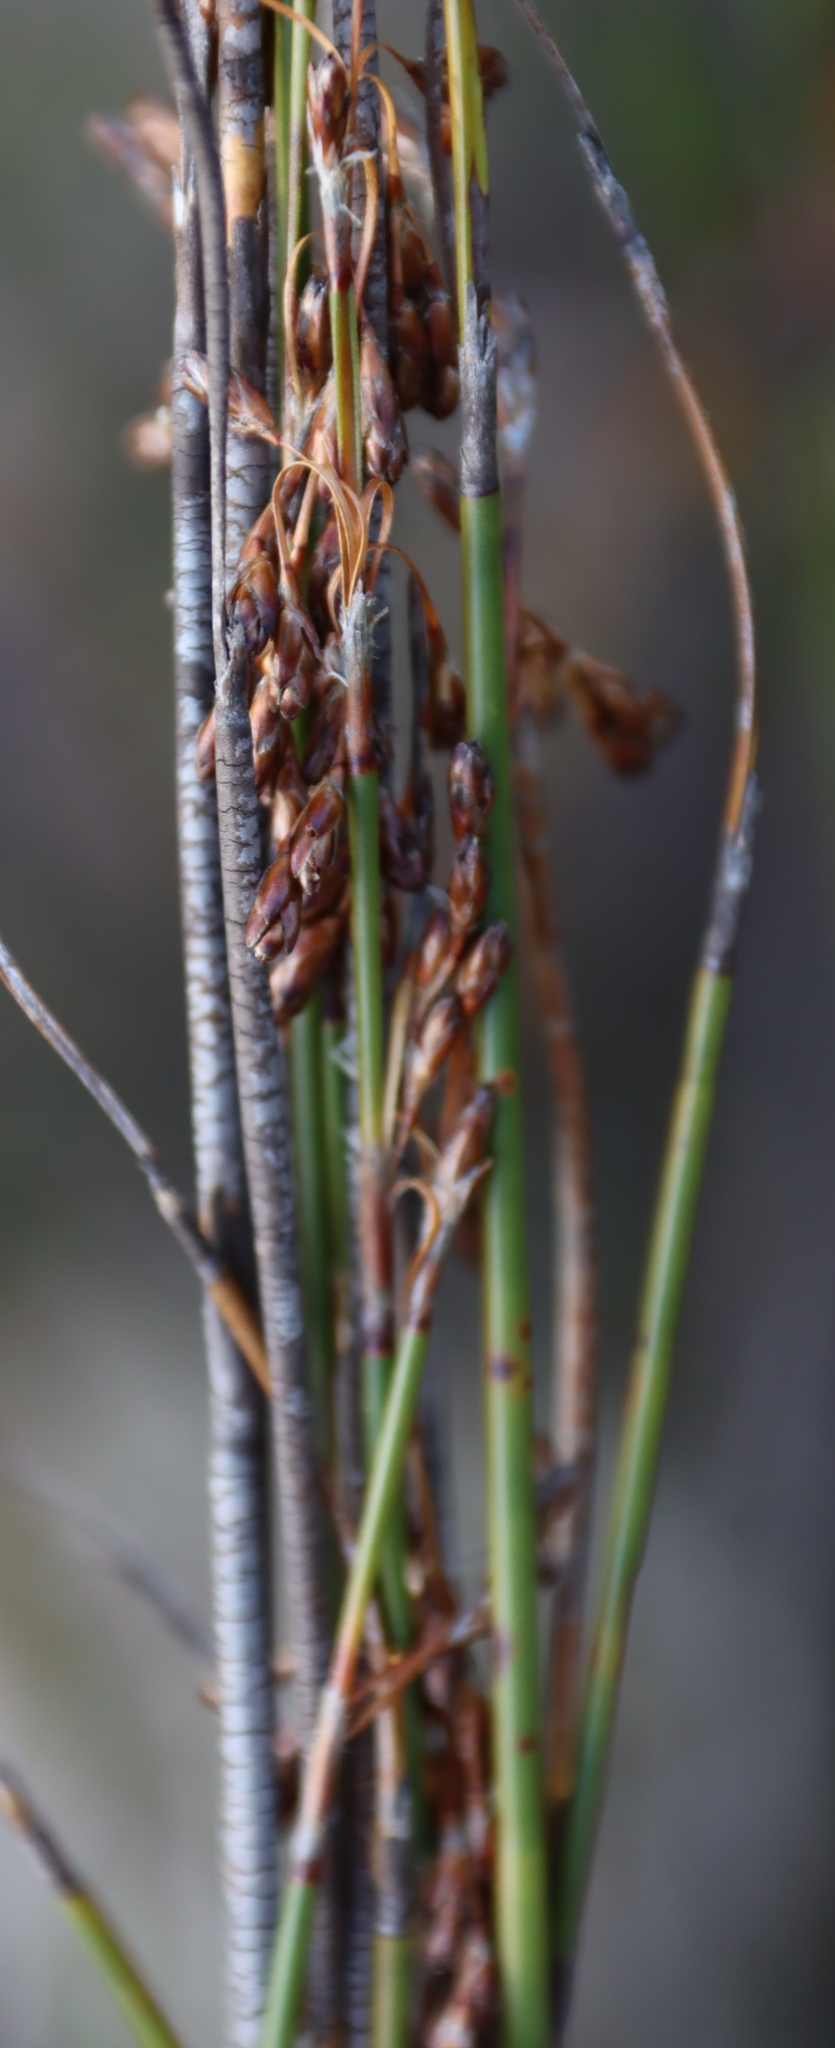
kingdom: Plantae
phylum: Tracheophyta
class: Liliopsida
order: Poales
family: Restionaceae
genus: Rhodocoma
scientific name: Rhodocoma fruticosa
